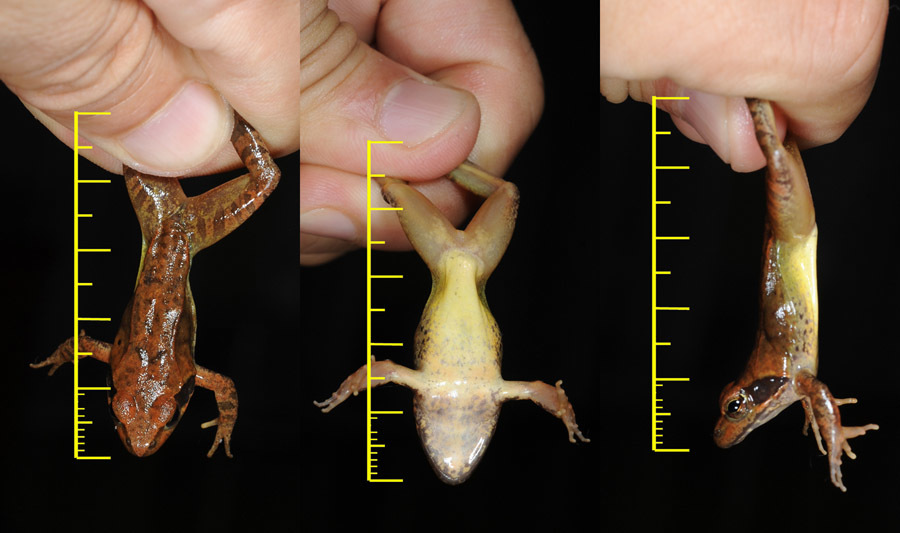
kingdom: Animalia
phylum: Chordata
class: Amphibia
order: Anura
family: Ranidae
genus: Rana
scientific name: Rana uenoi
